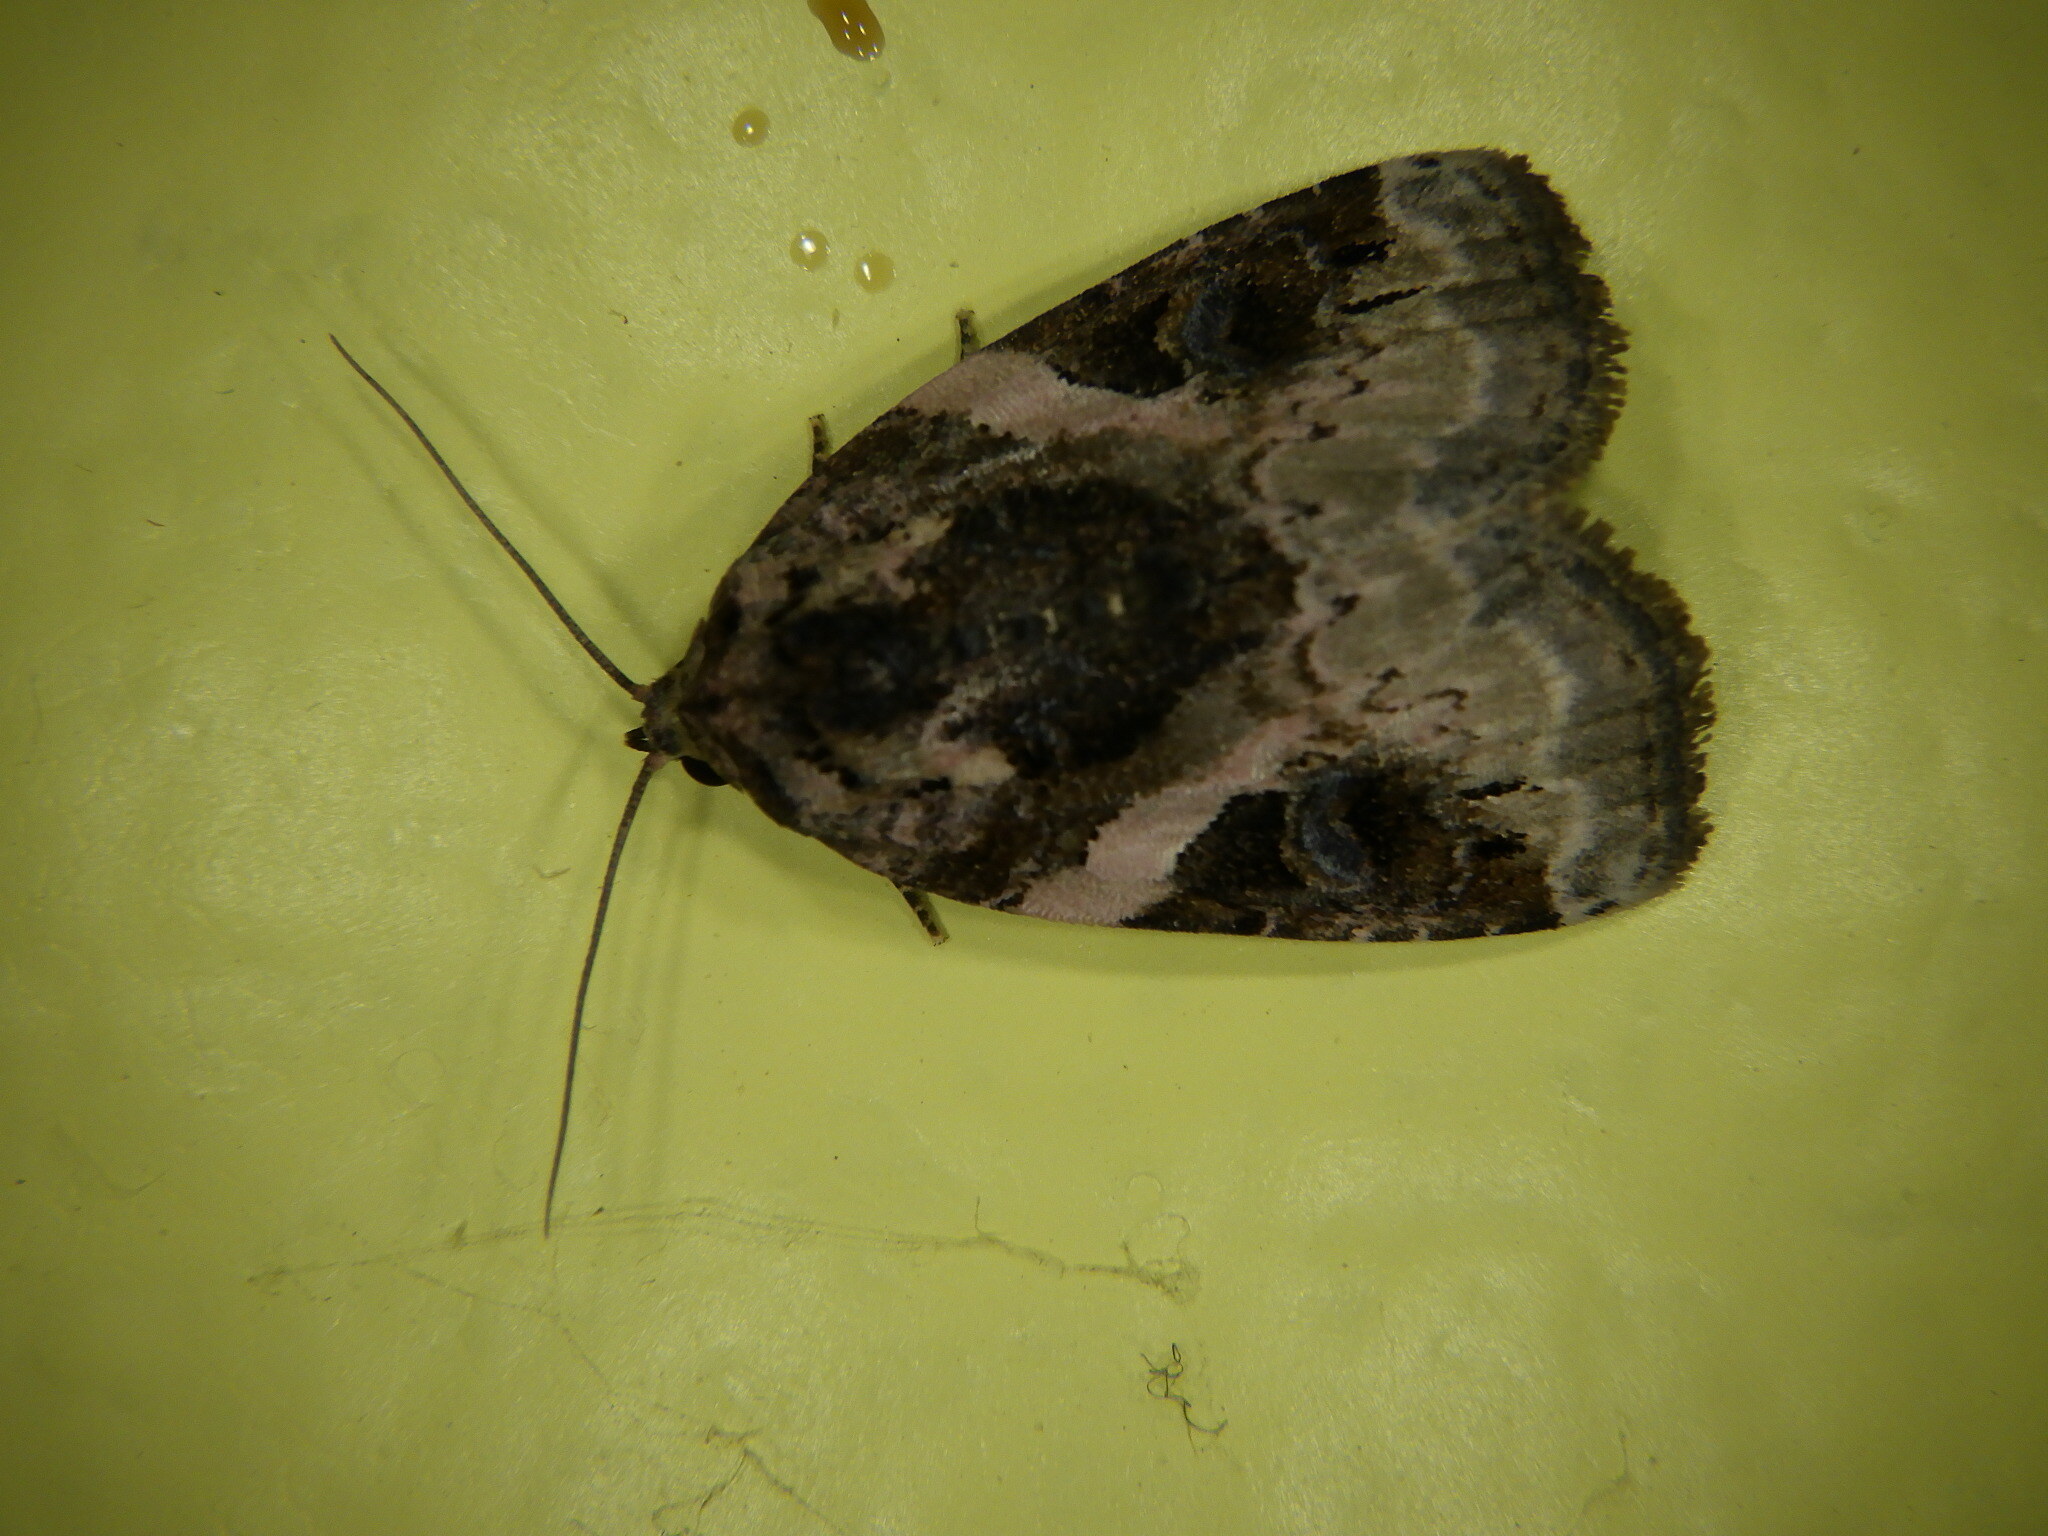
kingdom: Animalia
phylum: Arthropoda
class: Insecta
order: Lepidoptera
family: Noctuidae
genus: Pseudeustrotia
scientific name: Pseudeustrotia carneola
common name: Pink-barred lithacodia moth
